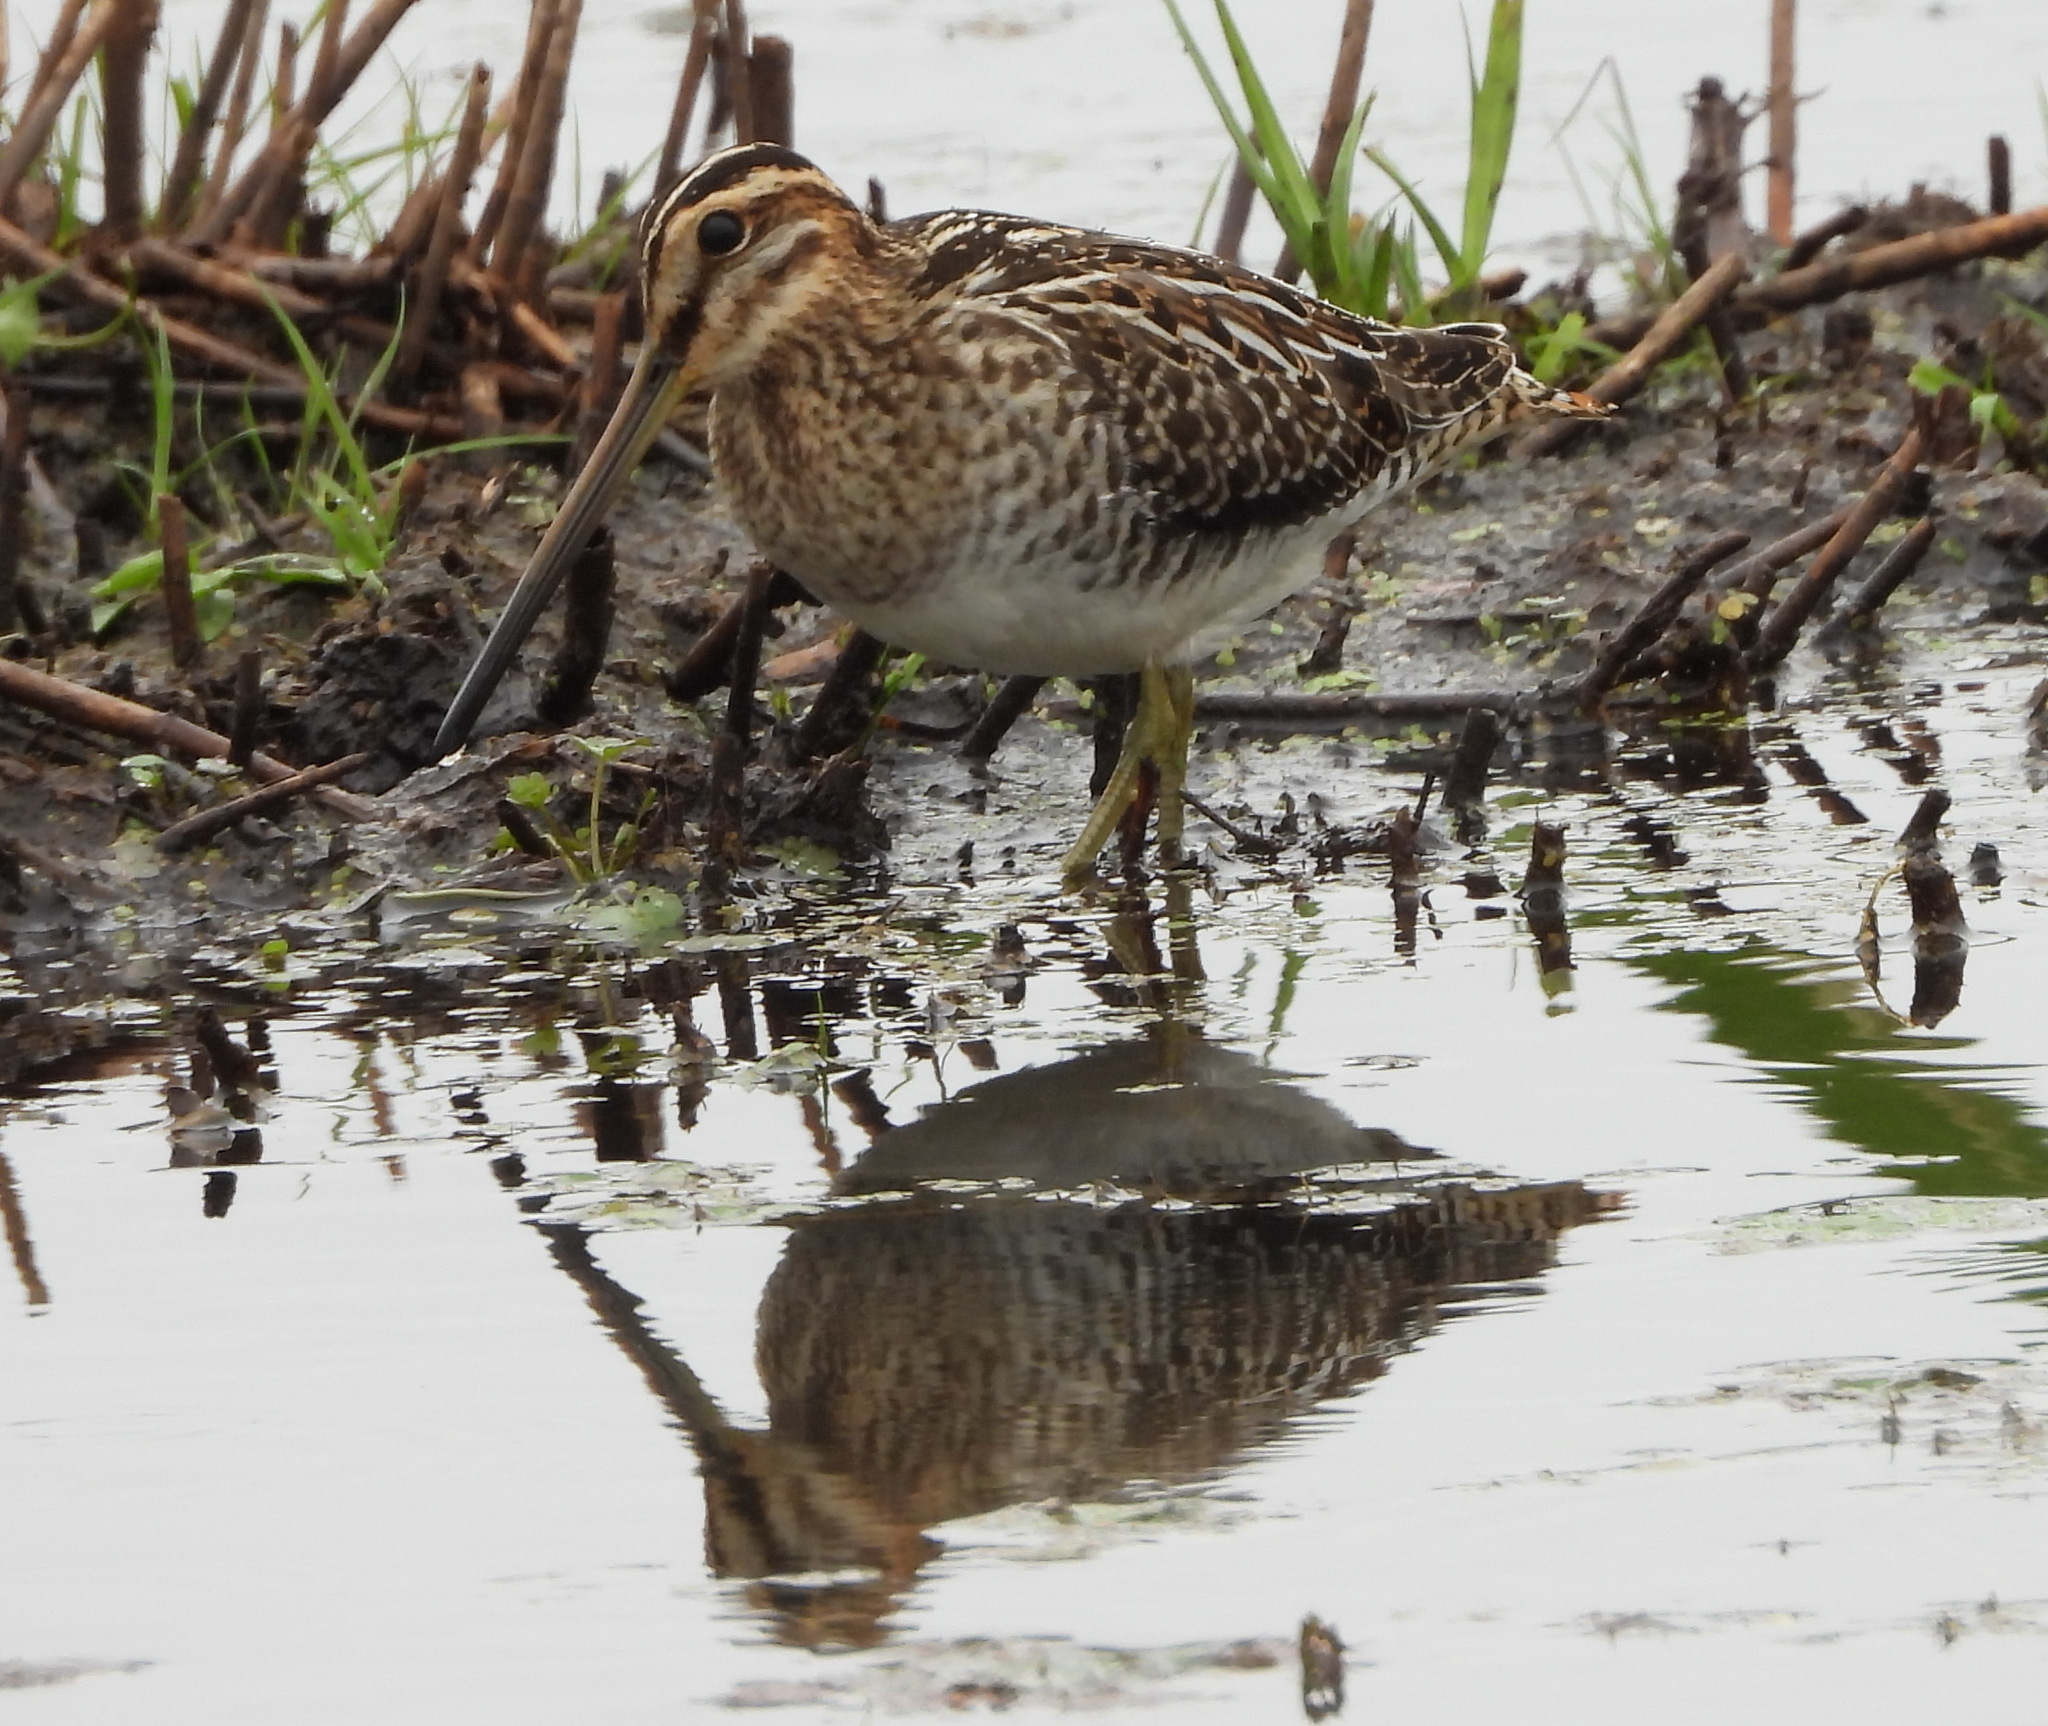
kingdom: Animalia
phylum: Chordata
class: Aves
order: Charadriiformes
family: Scolopacidae
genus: Gallinago
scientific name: Gallinago gallinago
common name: Common snipe
